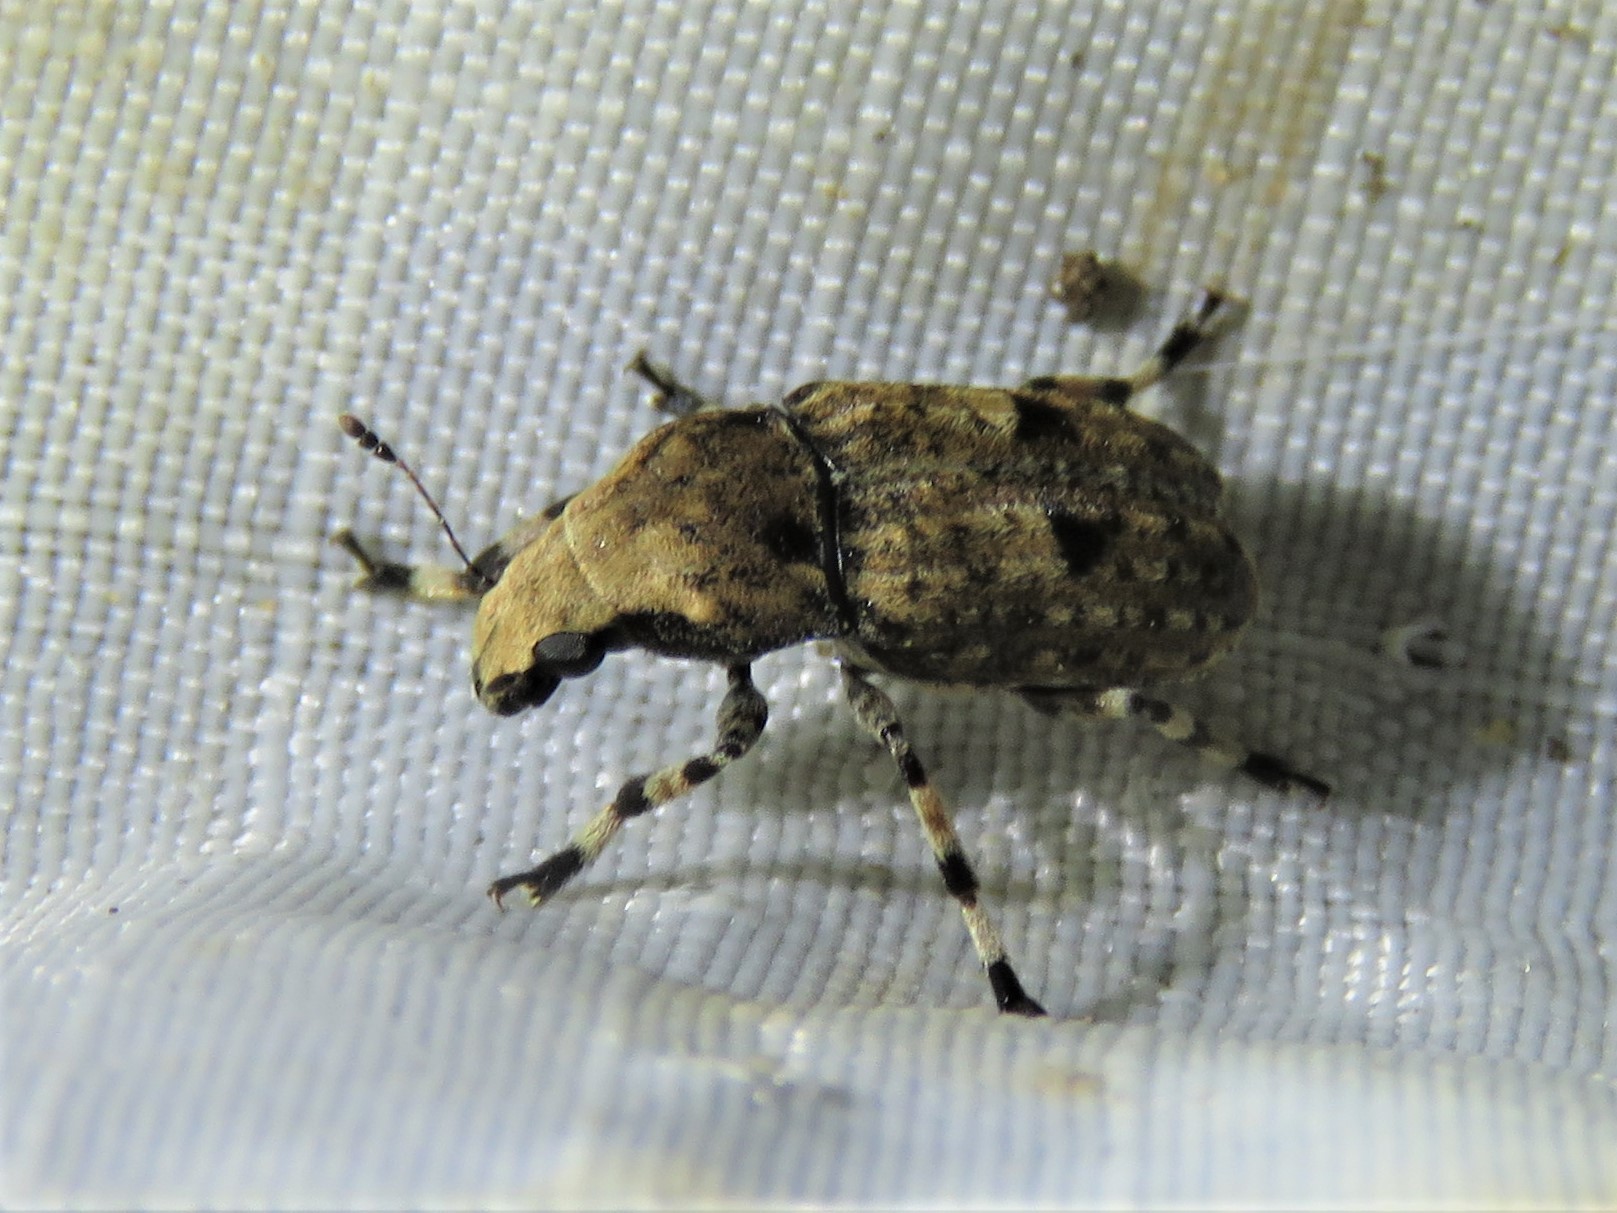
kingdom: Animalia
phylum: Arthropoda
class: Insecta
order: Coleoptera
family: Anthribidae
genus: Euparius
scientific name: Euparius marmoreus
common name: Marbled fungus weevil
